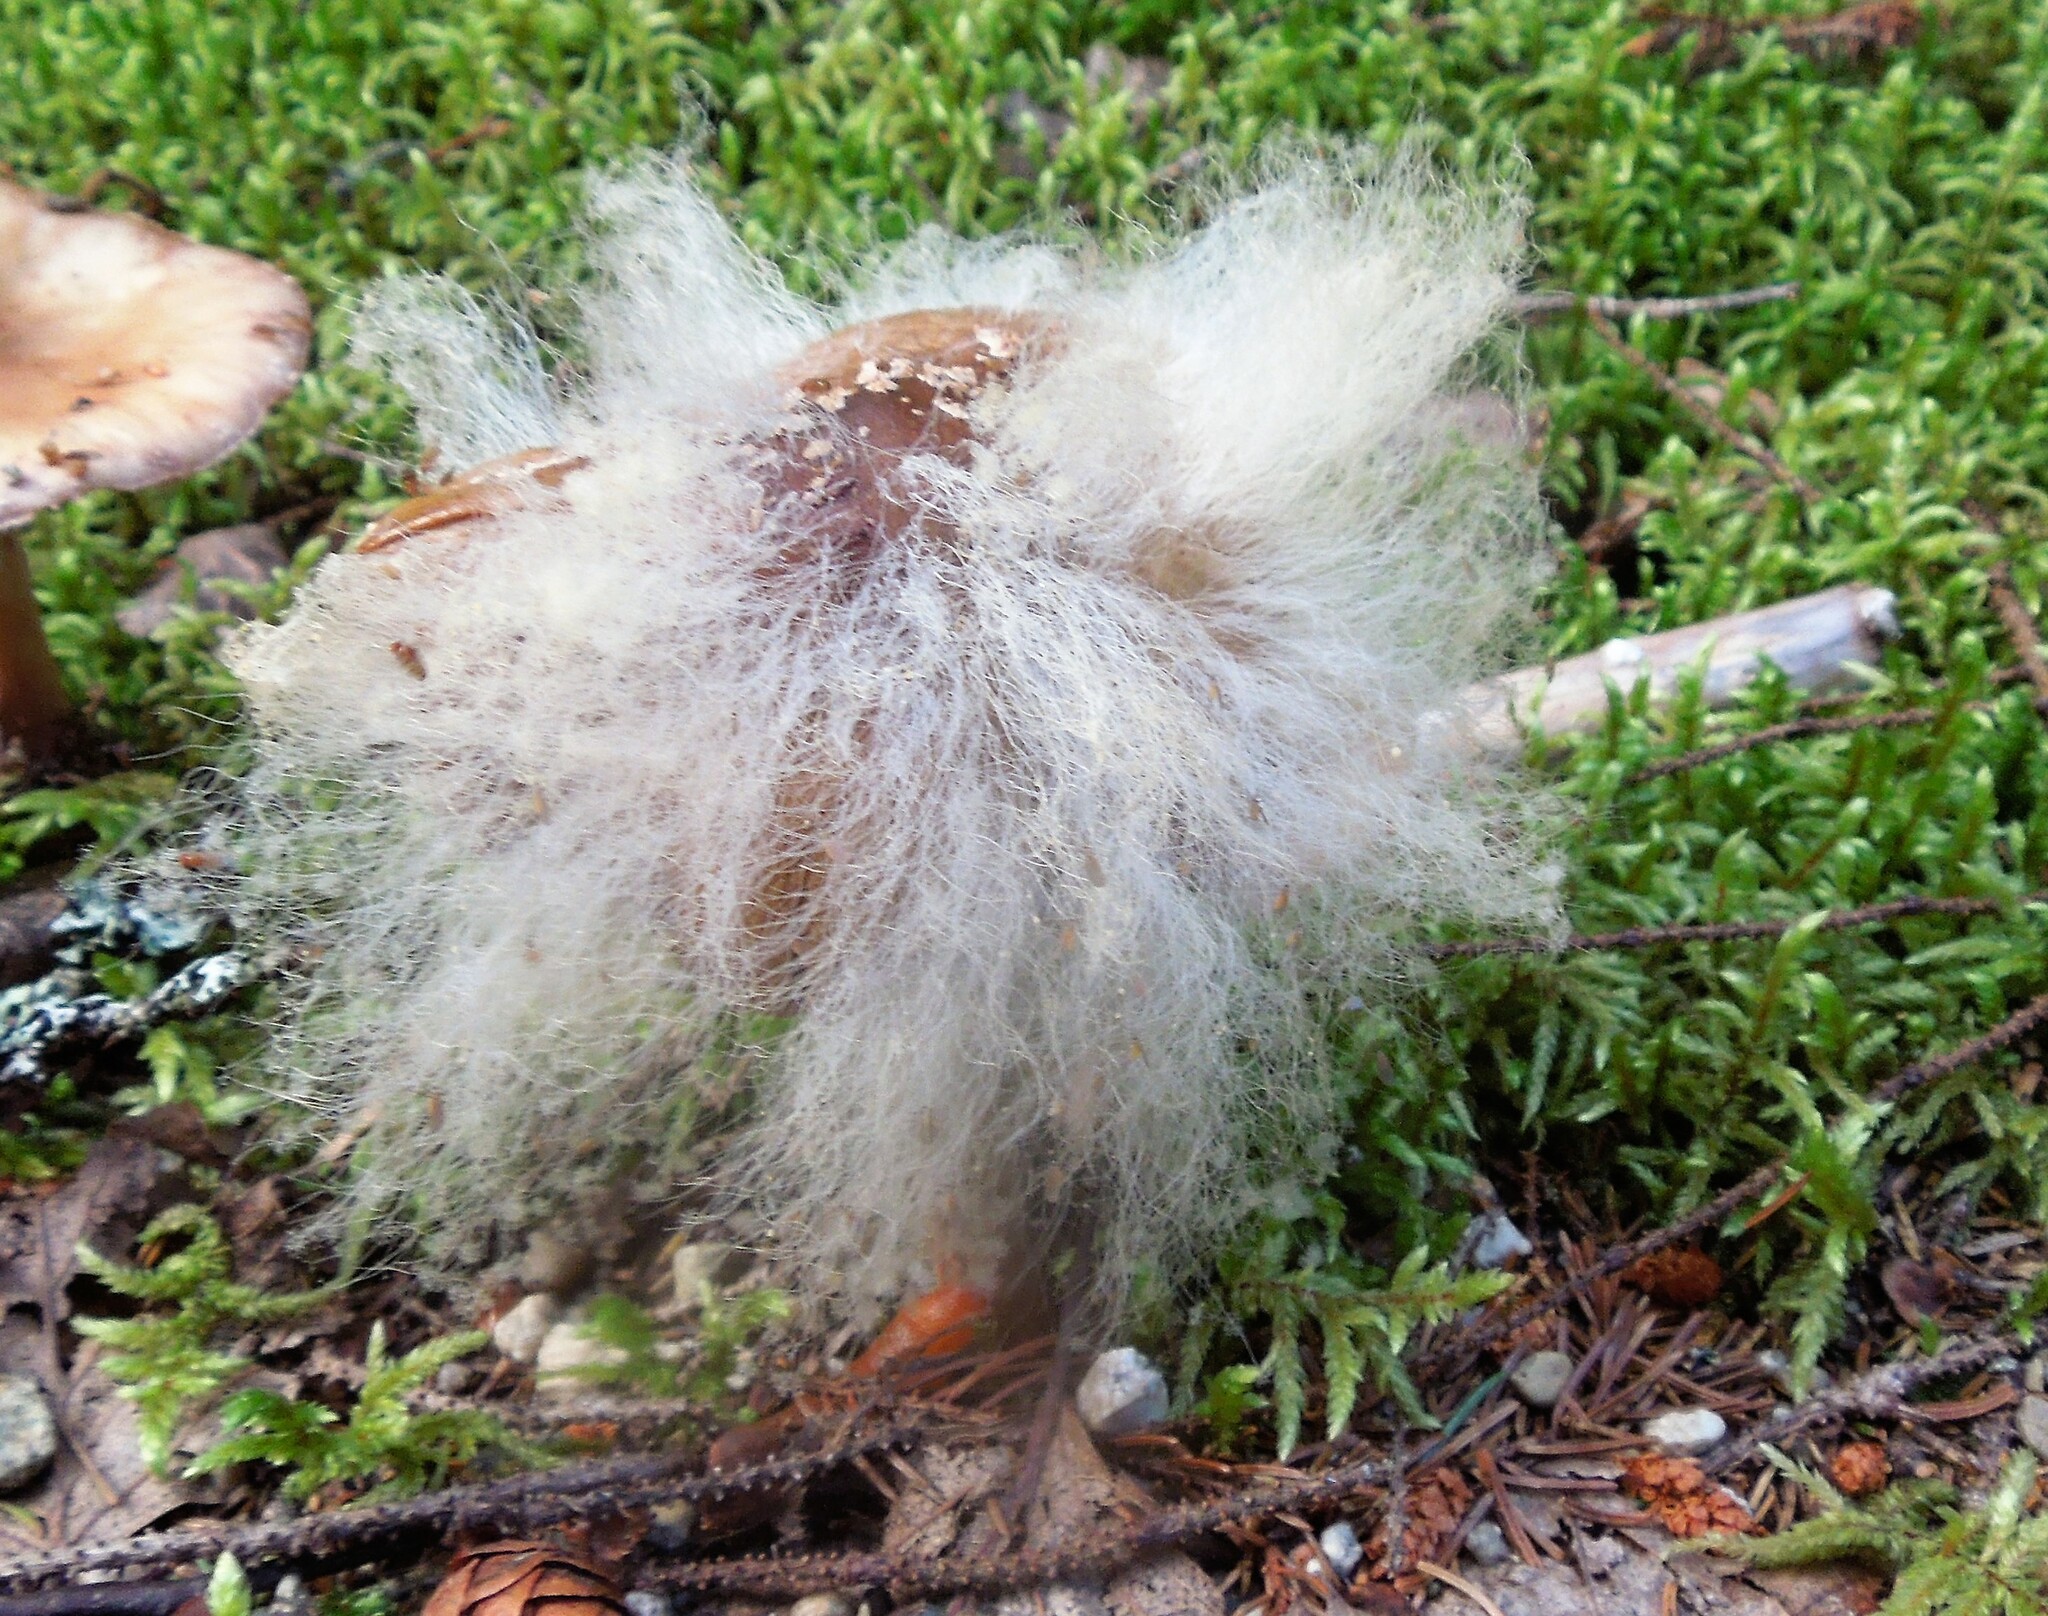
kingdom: Fungi
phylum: Mucoromycota
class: Mucoromycetes
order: Mucorales
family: Rhizopodaceae
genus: Syzygites
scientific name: Syzygites megalocarpus
